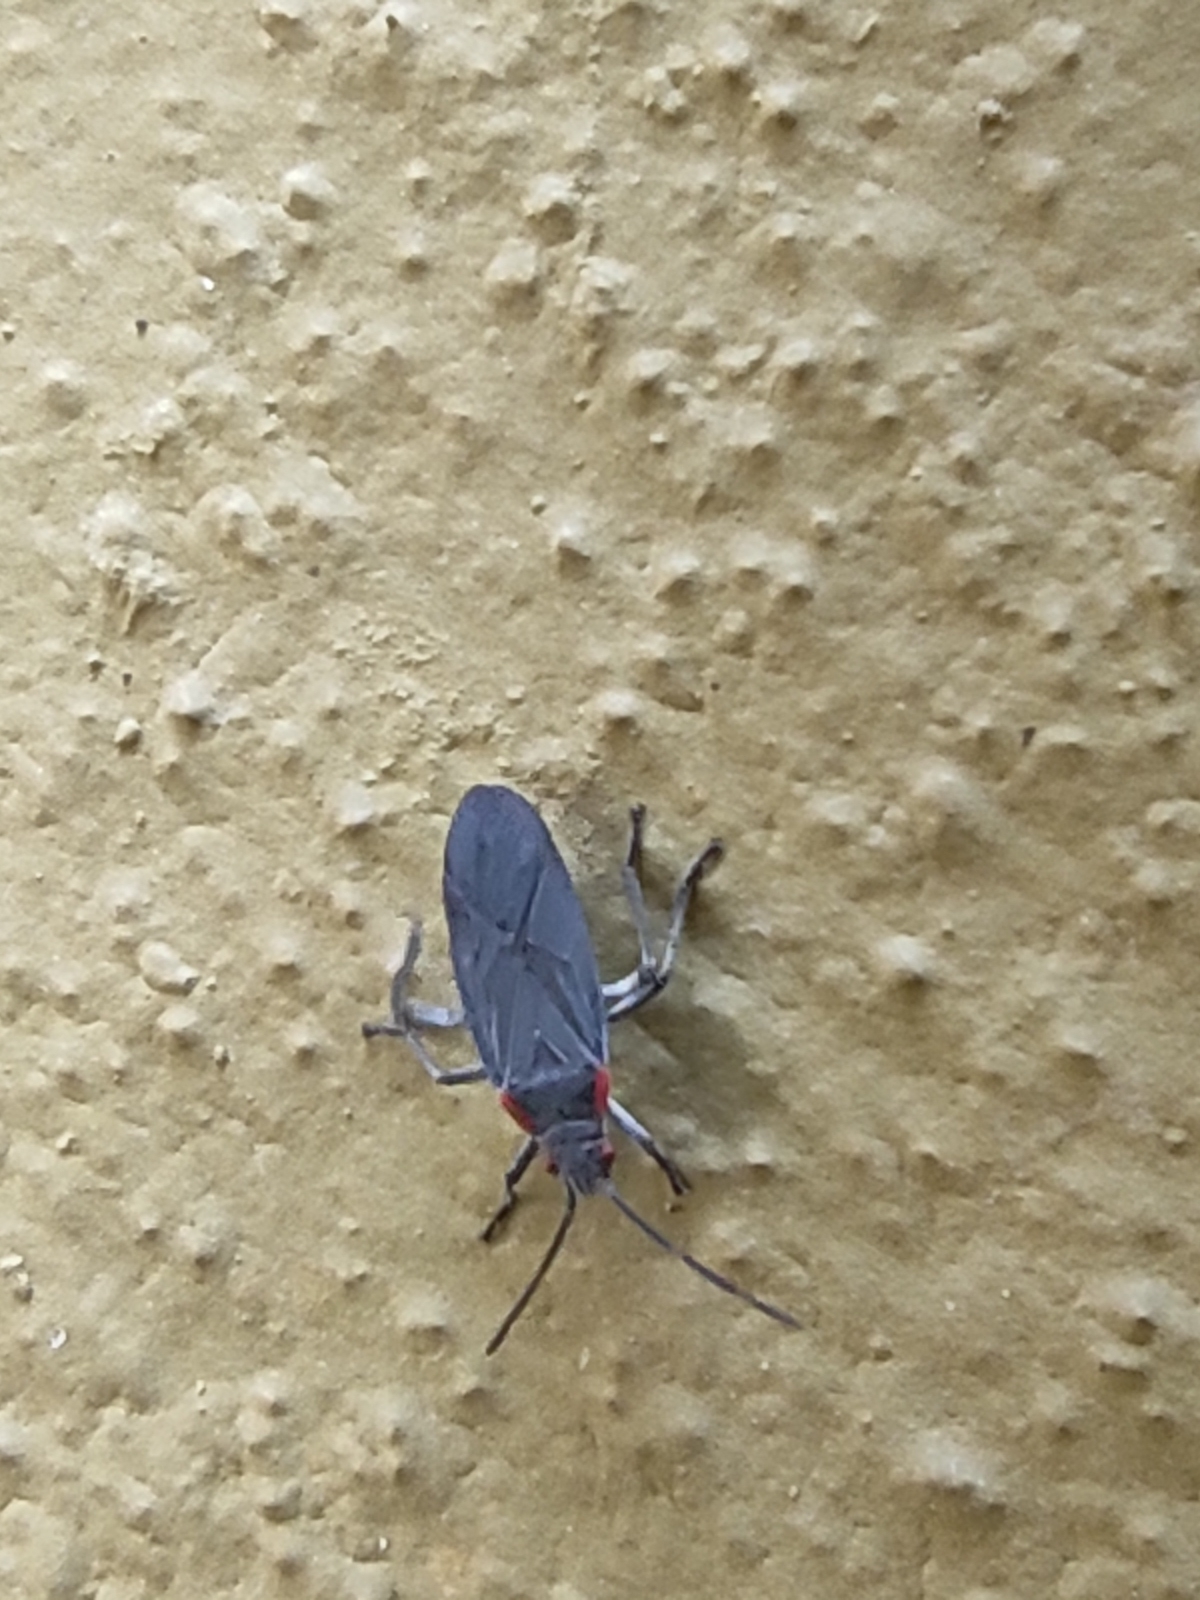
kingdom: Animalia
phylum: Arthropoda
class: Insecta
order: Hemiptera
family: Rhopalidae
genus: Jadera
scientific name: Jadera haematoloma
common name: Red-shouldered bug
